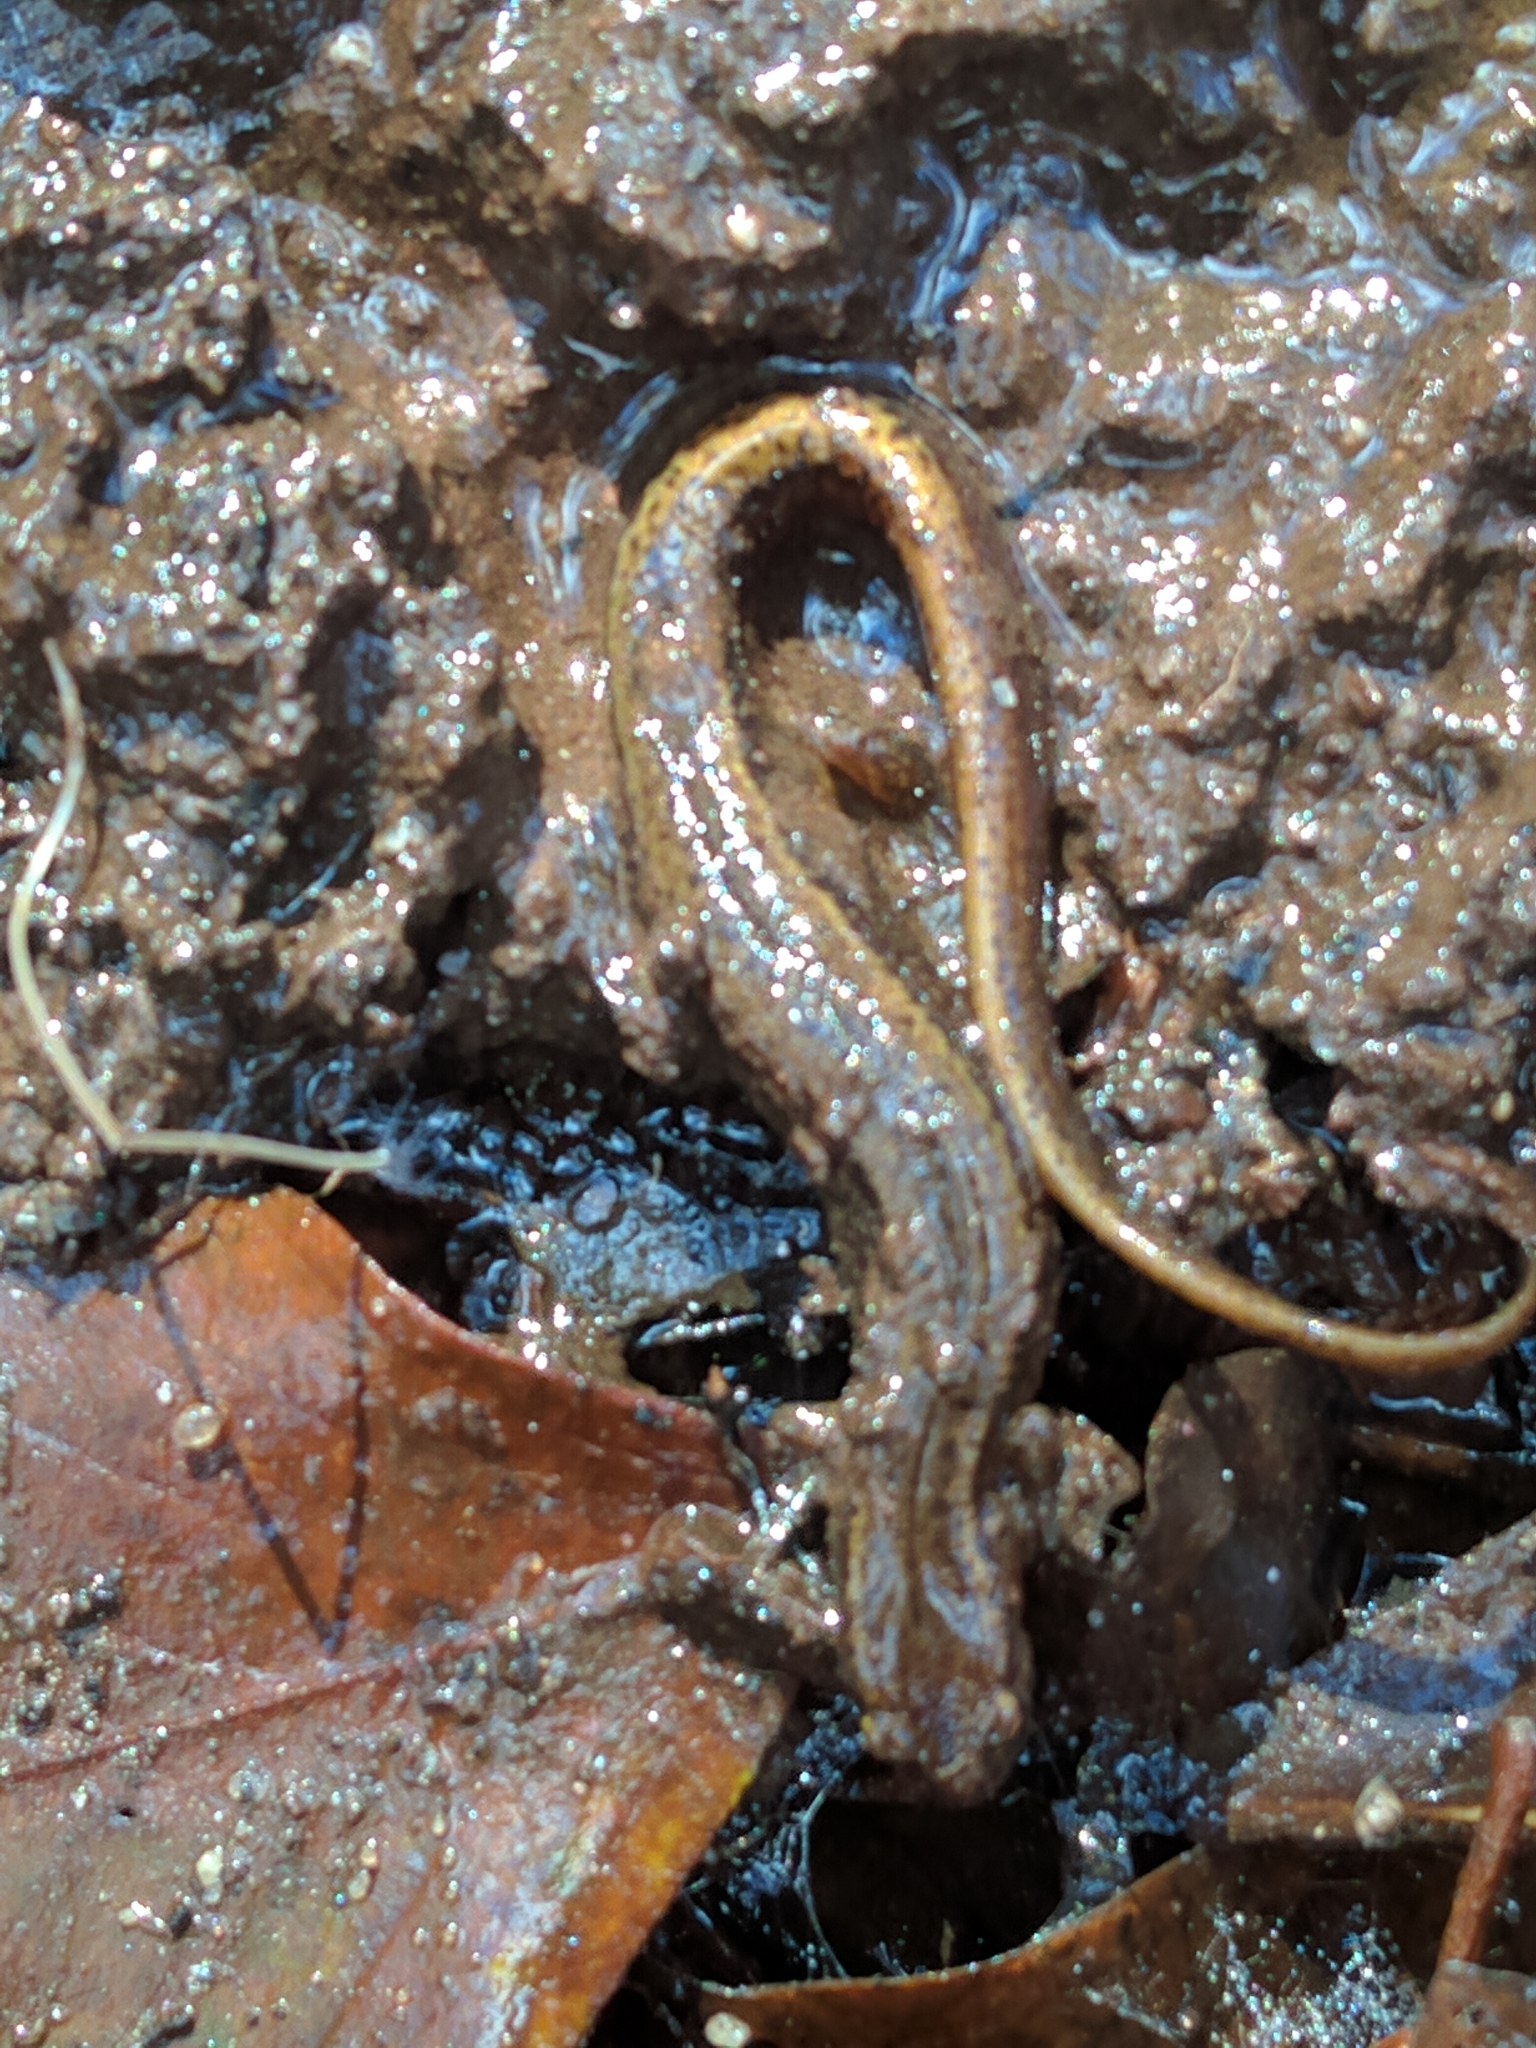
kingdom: Animalia
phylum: Chordata
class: Amphibia
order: Caudata
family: Plethodontidae
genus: Eurycea
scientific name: Eurycea bislineata
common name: Northern two-lined salamander
